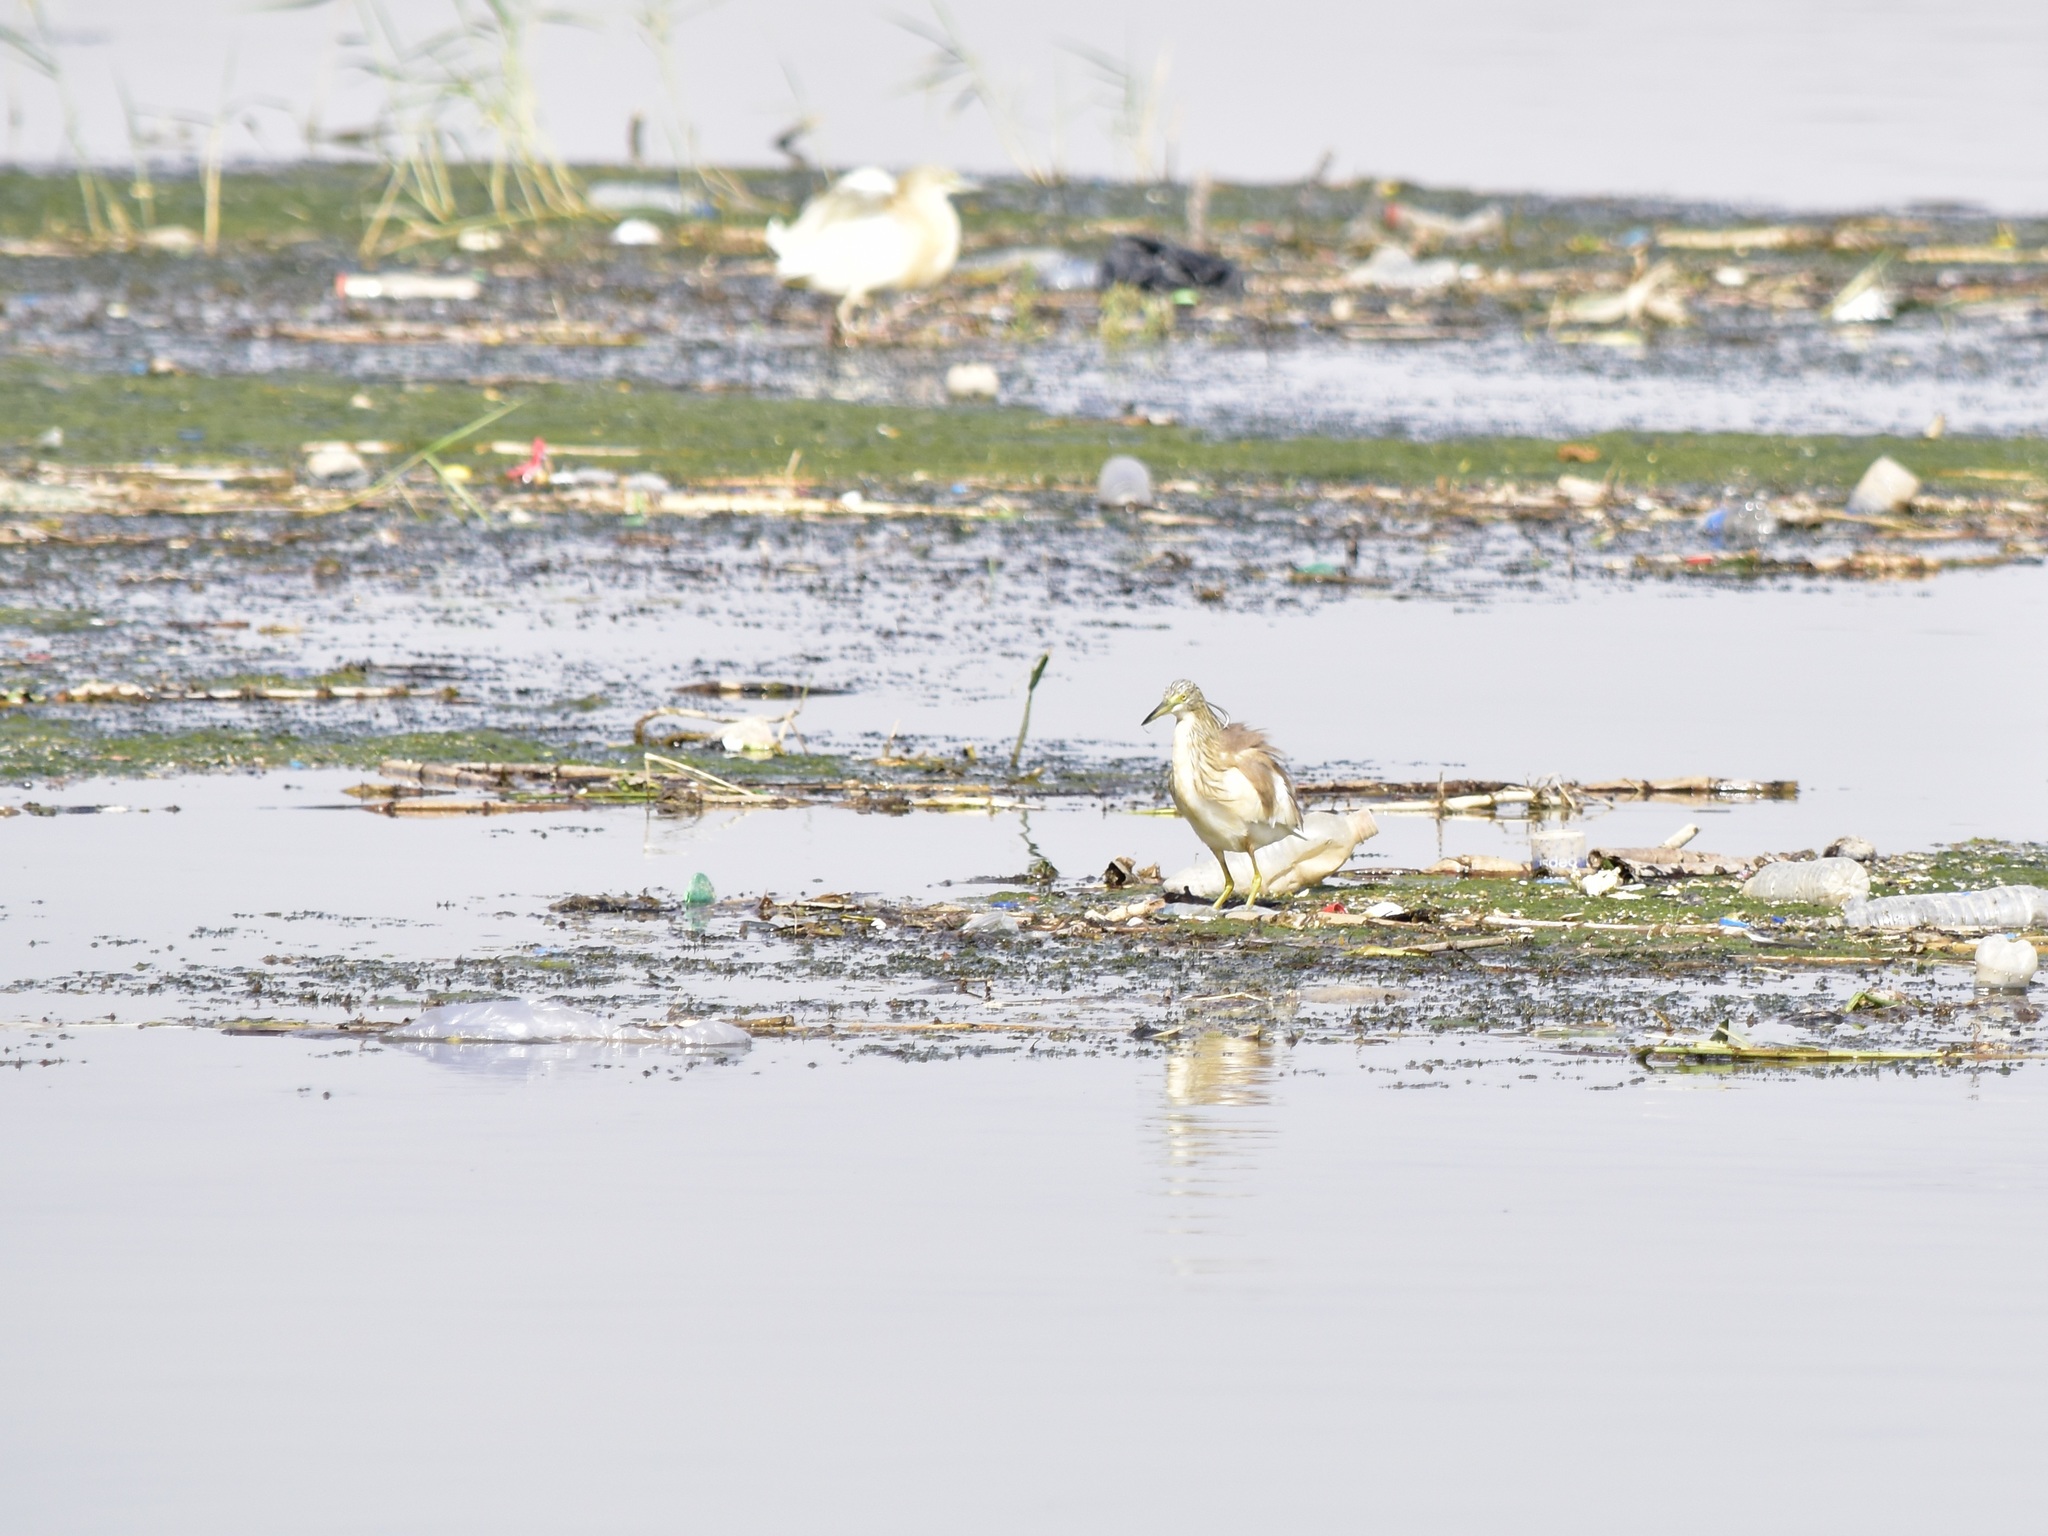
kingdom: Animalia
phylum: Chordata
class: Aves
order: Pelecaniformes
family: Ardeidae
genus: Ardeola
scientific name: Ardeola ralloides
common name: Squacco heron
